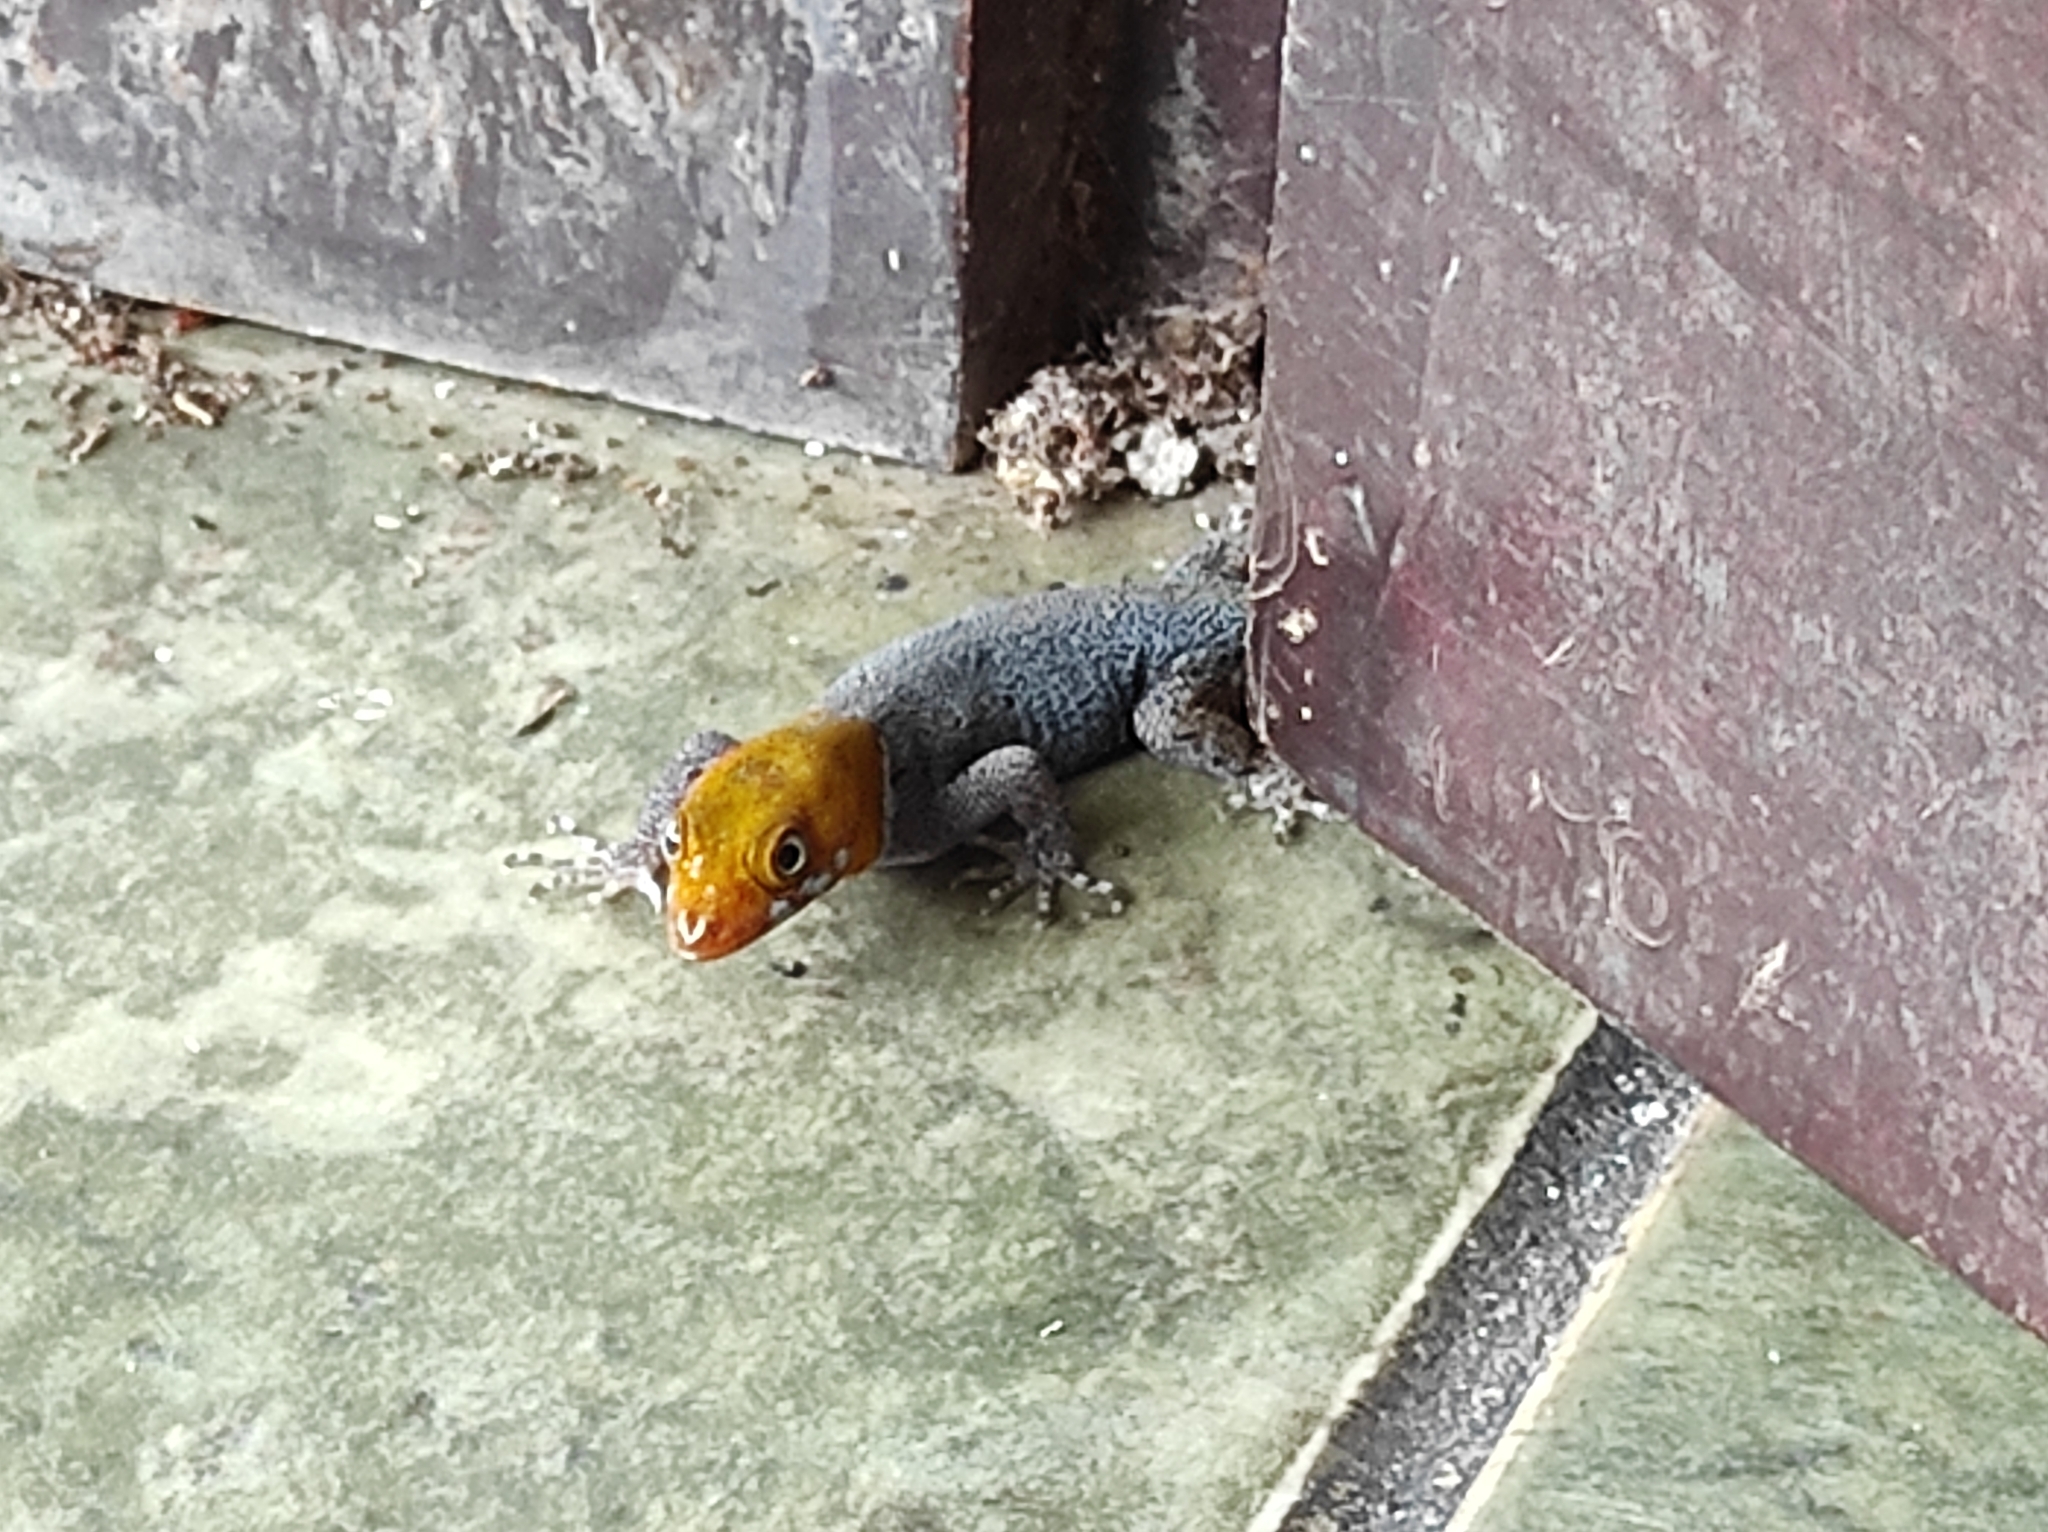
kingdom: Animalia
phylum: Chordata
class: Squamata
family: Sphaerodactylidae
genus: Gonatodes
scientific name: Gonatodes albogularis
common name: Yellow-headed gecko
